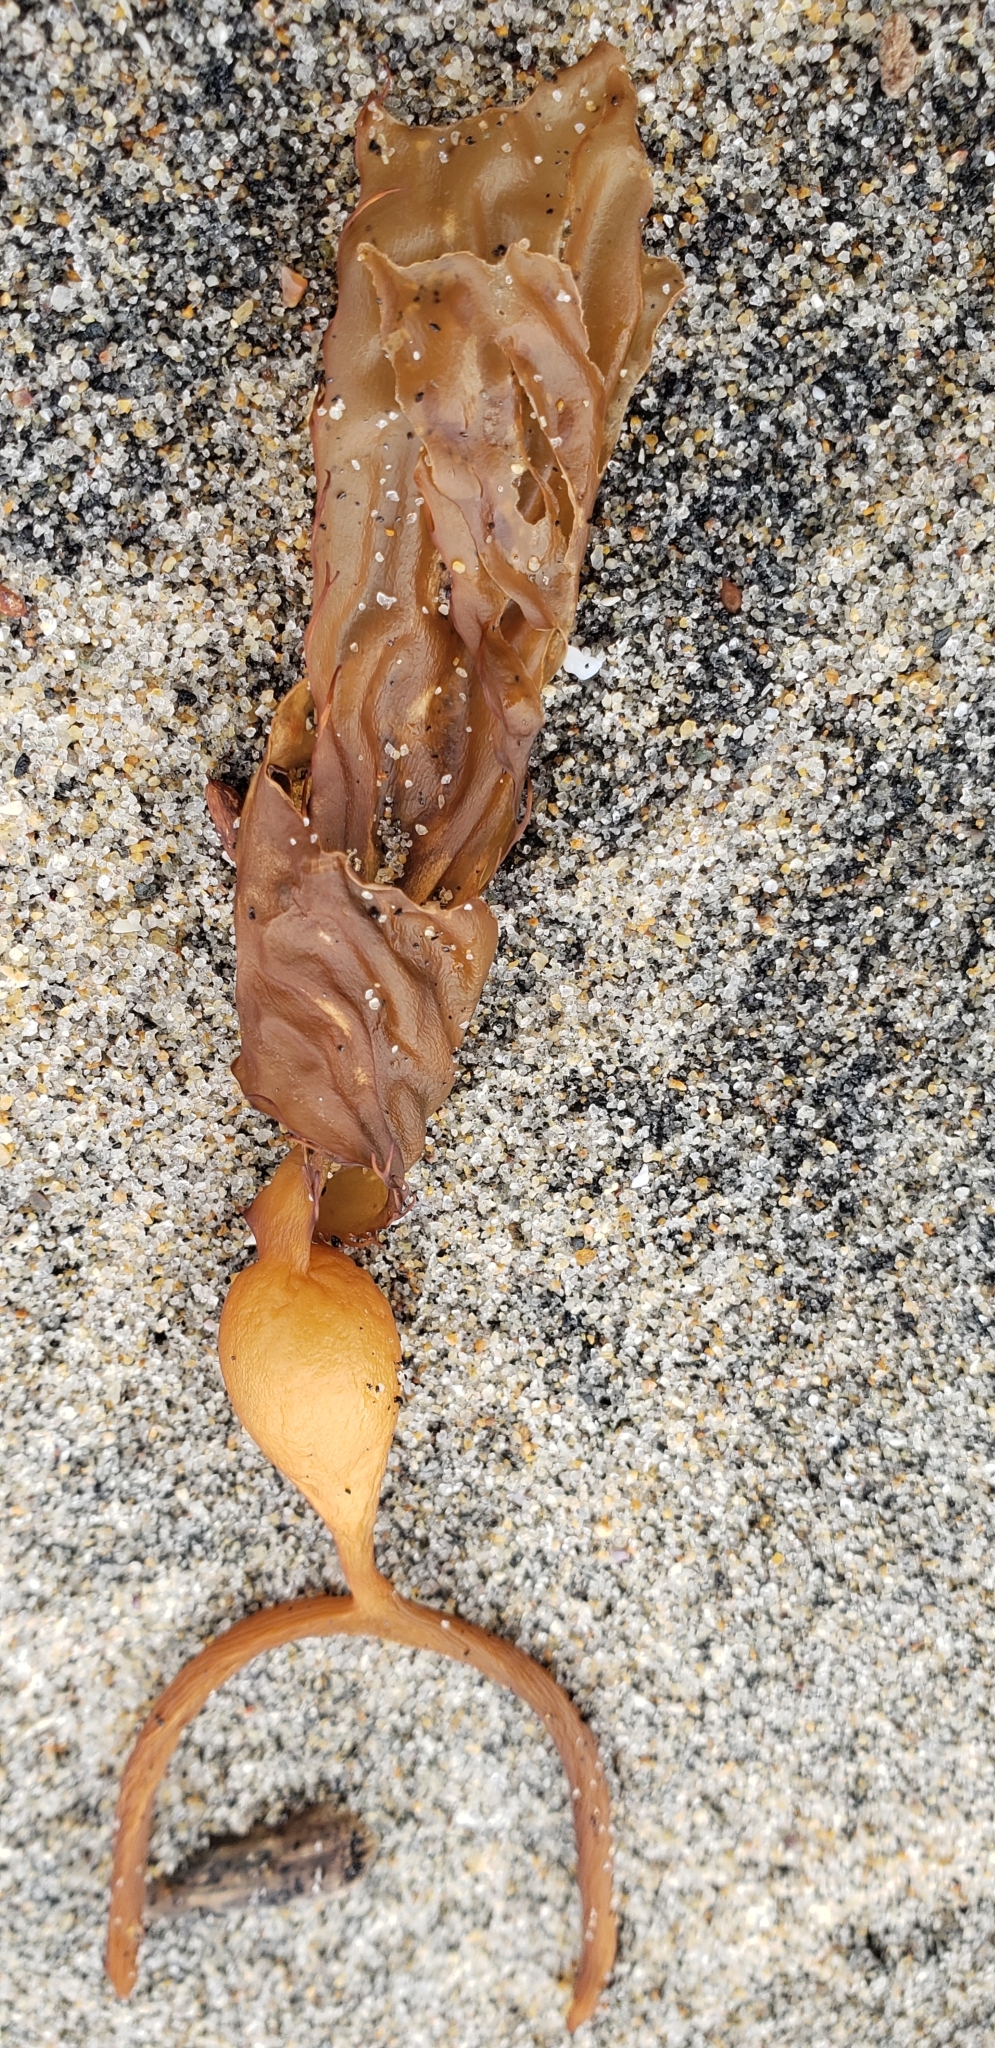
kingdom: Chromista
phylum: Ochrophyta
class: Phaeophyceae
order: Laminariales
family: Laminariaceae
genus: Macrocystis
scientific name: Macrocystis pyrifera
